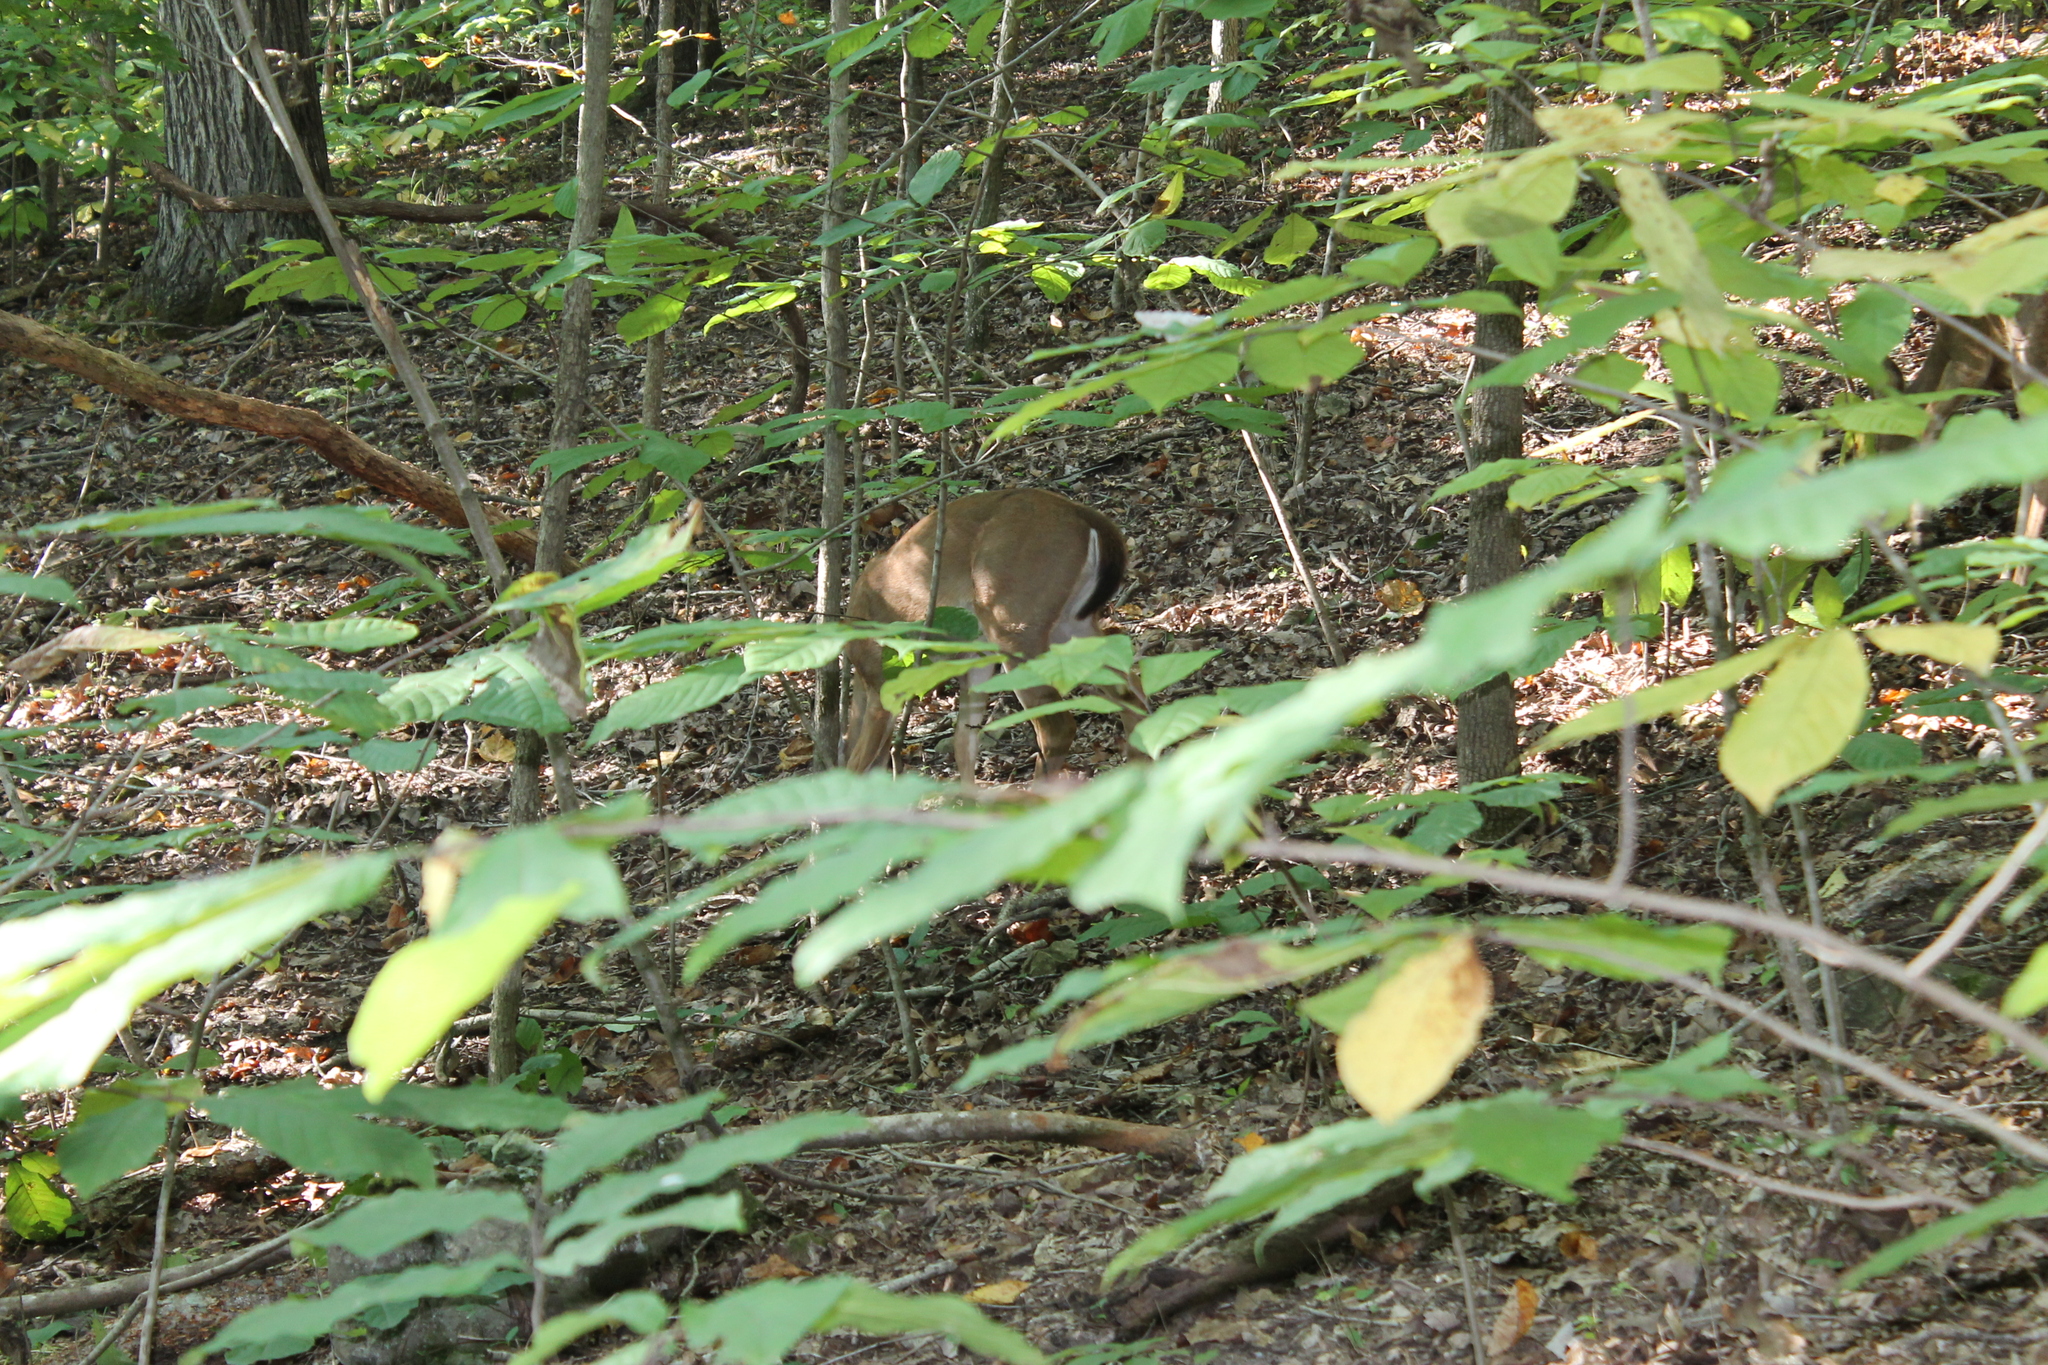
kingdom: Animalia
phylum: Chordata
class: Mammalia
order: Artiodactyla
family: Cervidae
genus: Odocoileus
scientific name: Odocoileus virginianus
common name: White-tailed deer
